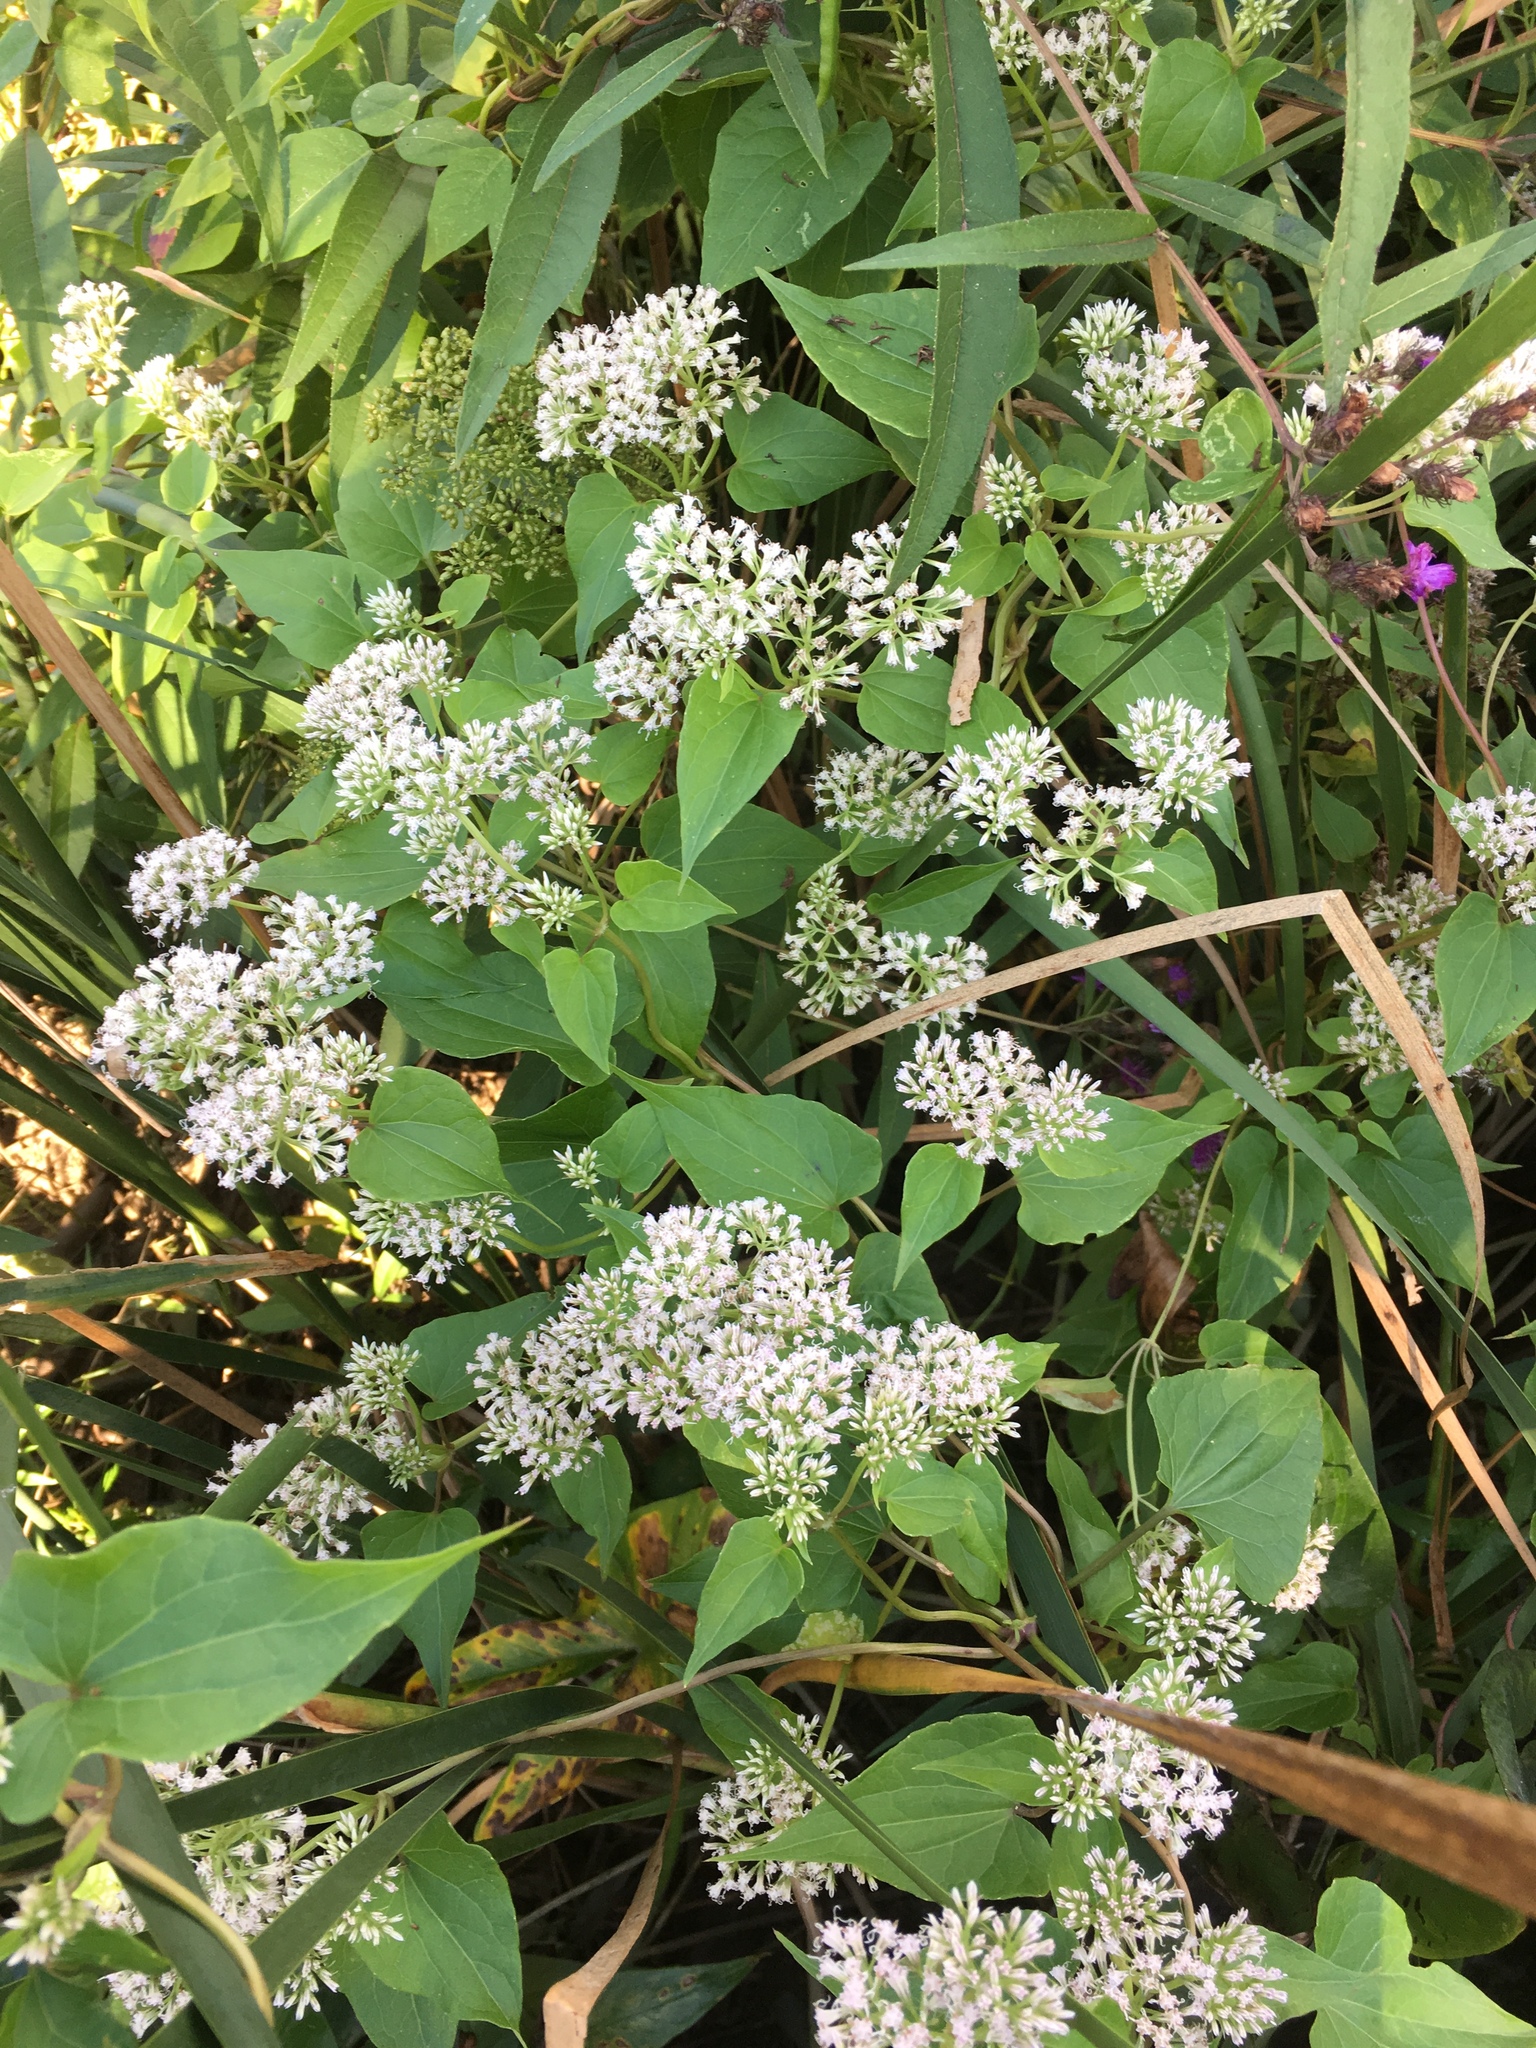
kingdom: Plantae
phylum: Tracheophyta
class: Magnoliopsida
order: Asterales
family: Asteraceae
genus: Mikania
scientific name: Mikania scandens
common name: Climbing hempvine
